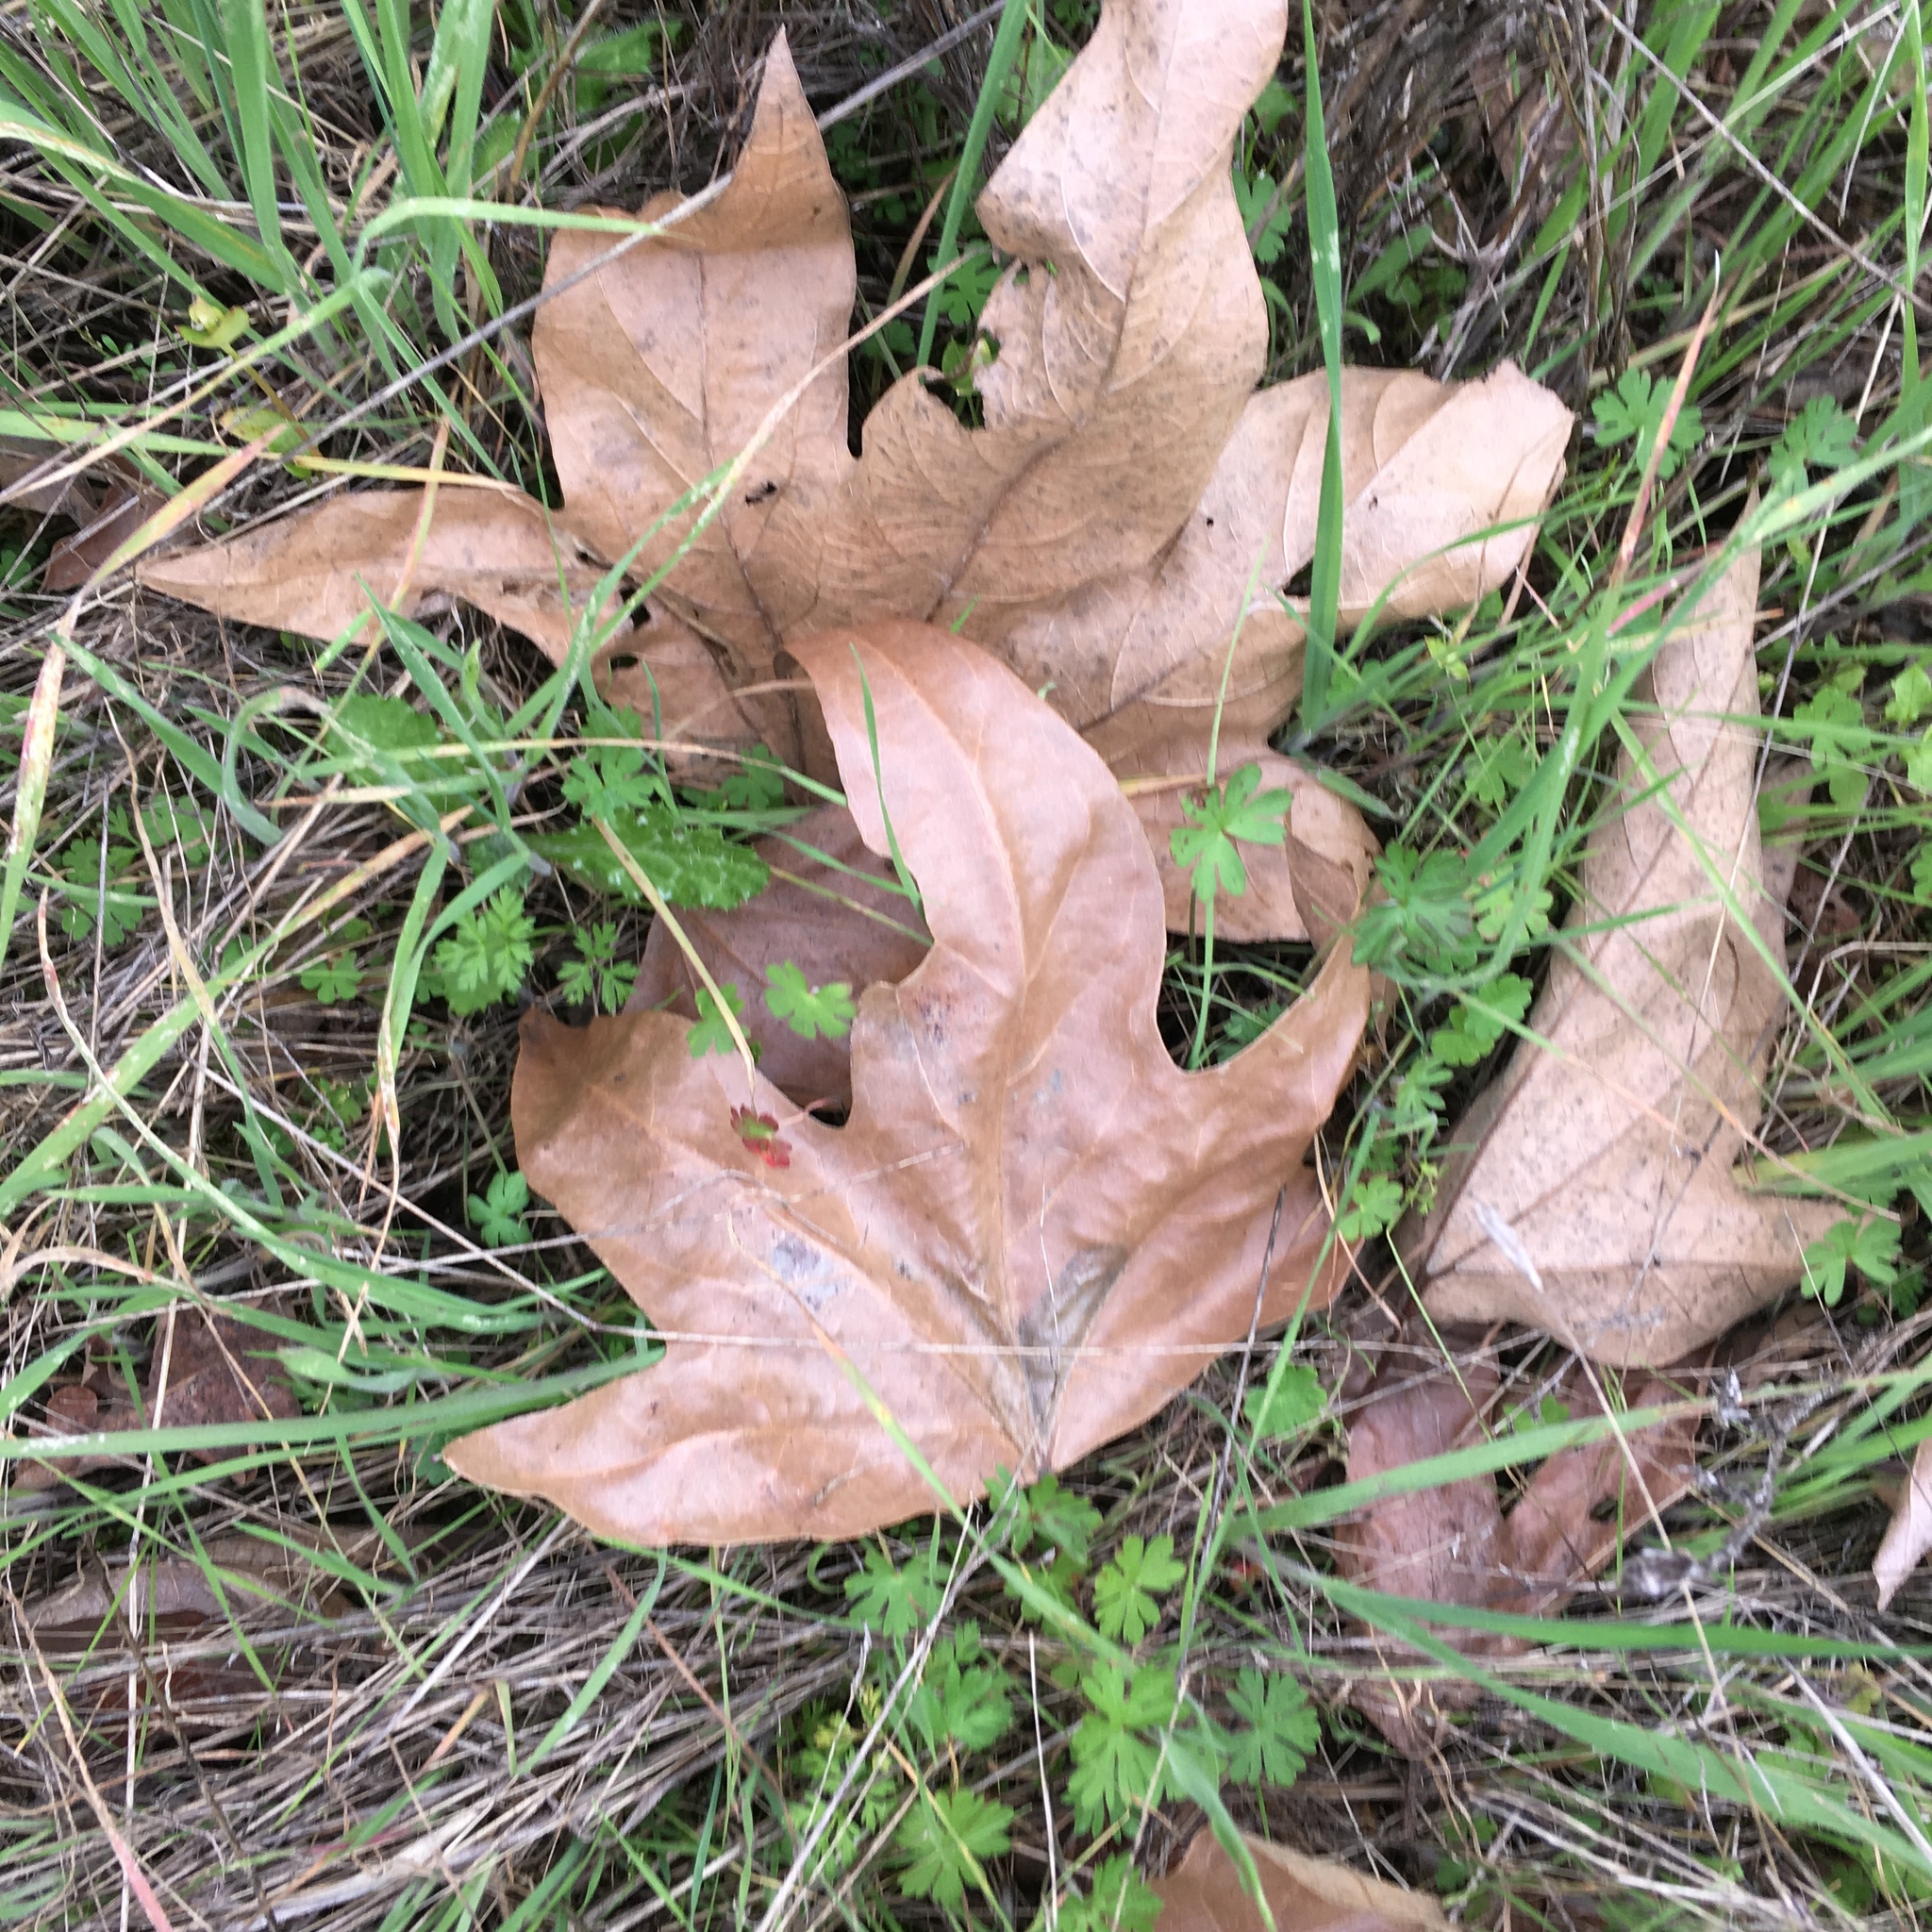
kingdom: Plantae
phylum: Tracheophyta
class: Magnoliopsida
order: Proteales
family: Platanaceae
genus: Platanus
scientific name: Platanus racemosa
